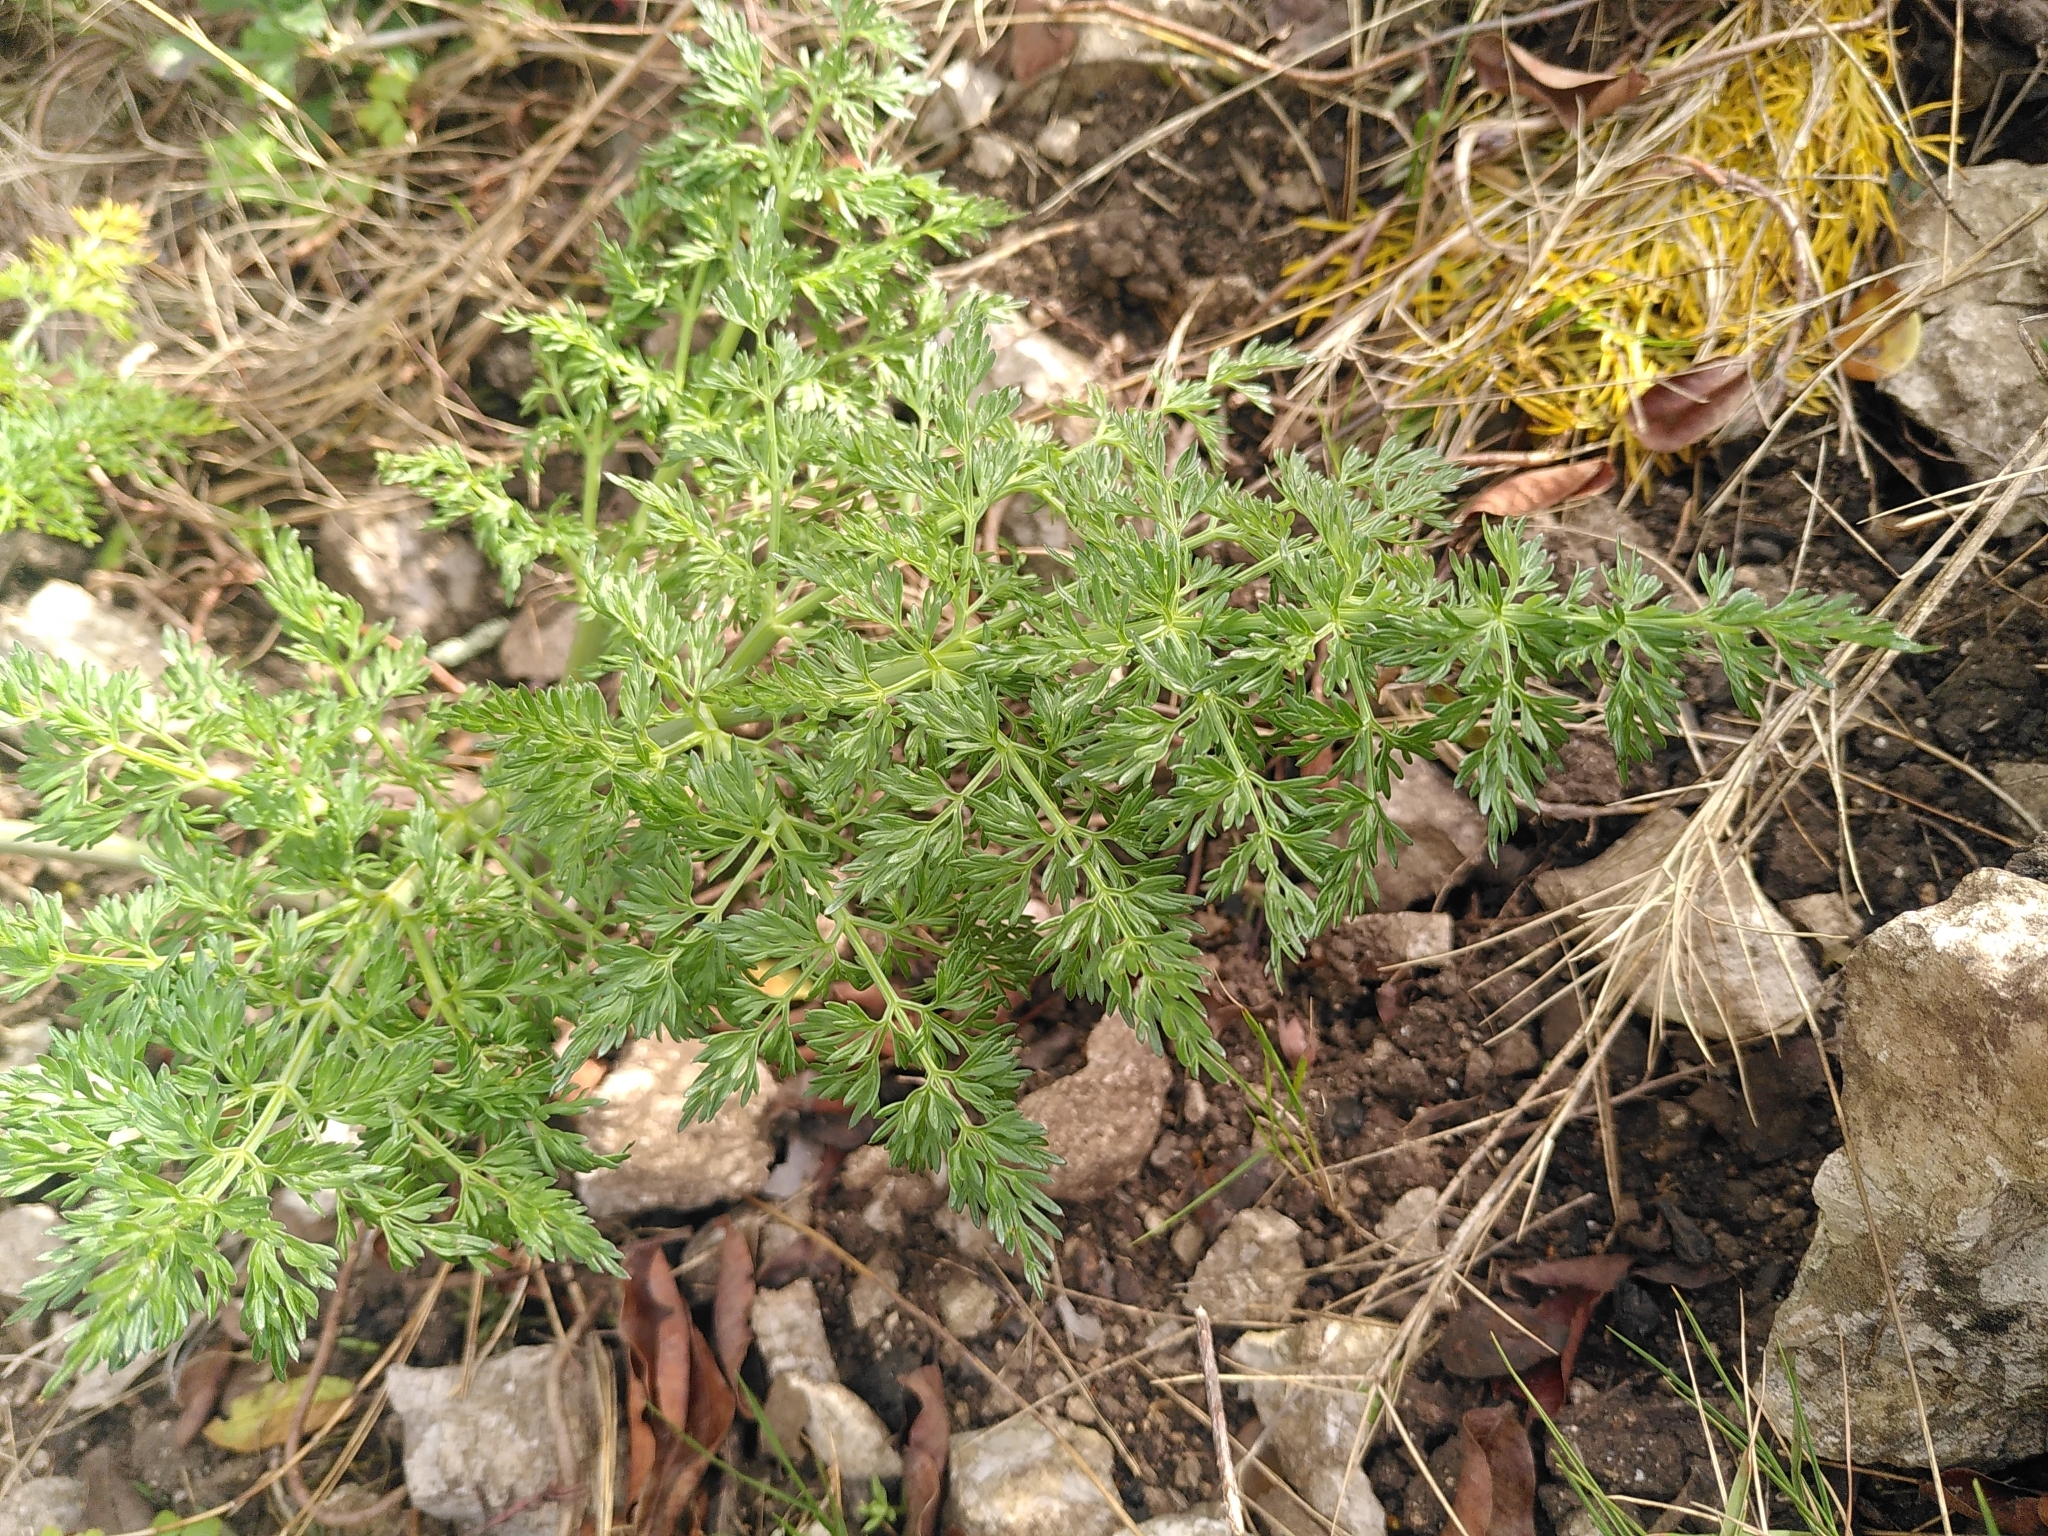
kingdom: Plantae
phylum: Tracheophyta
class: Magnoliopsida
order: Apiales
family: Apiaceae
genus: Ferula
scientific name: Ferula glauca
